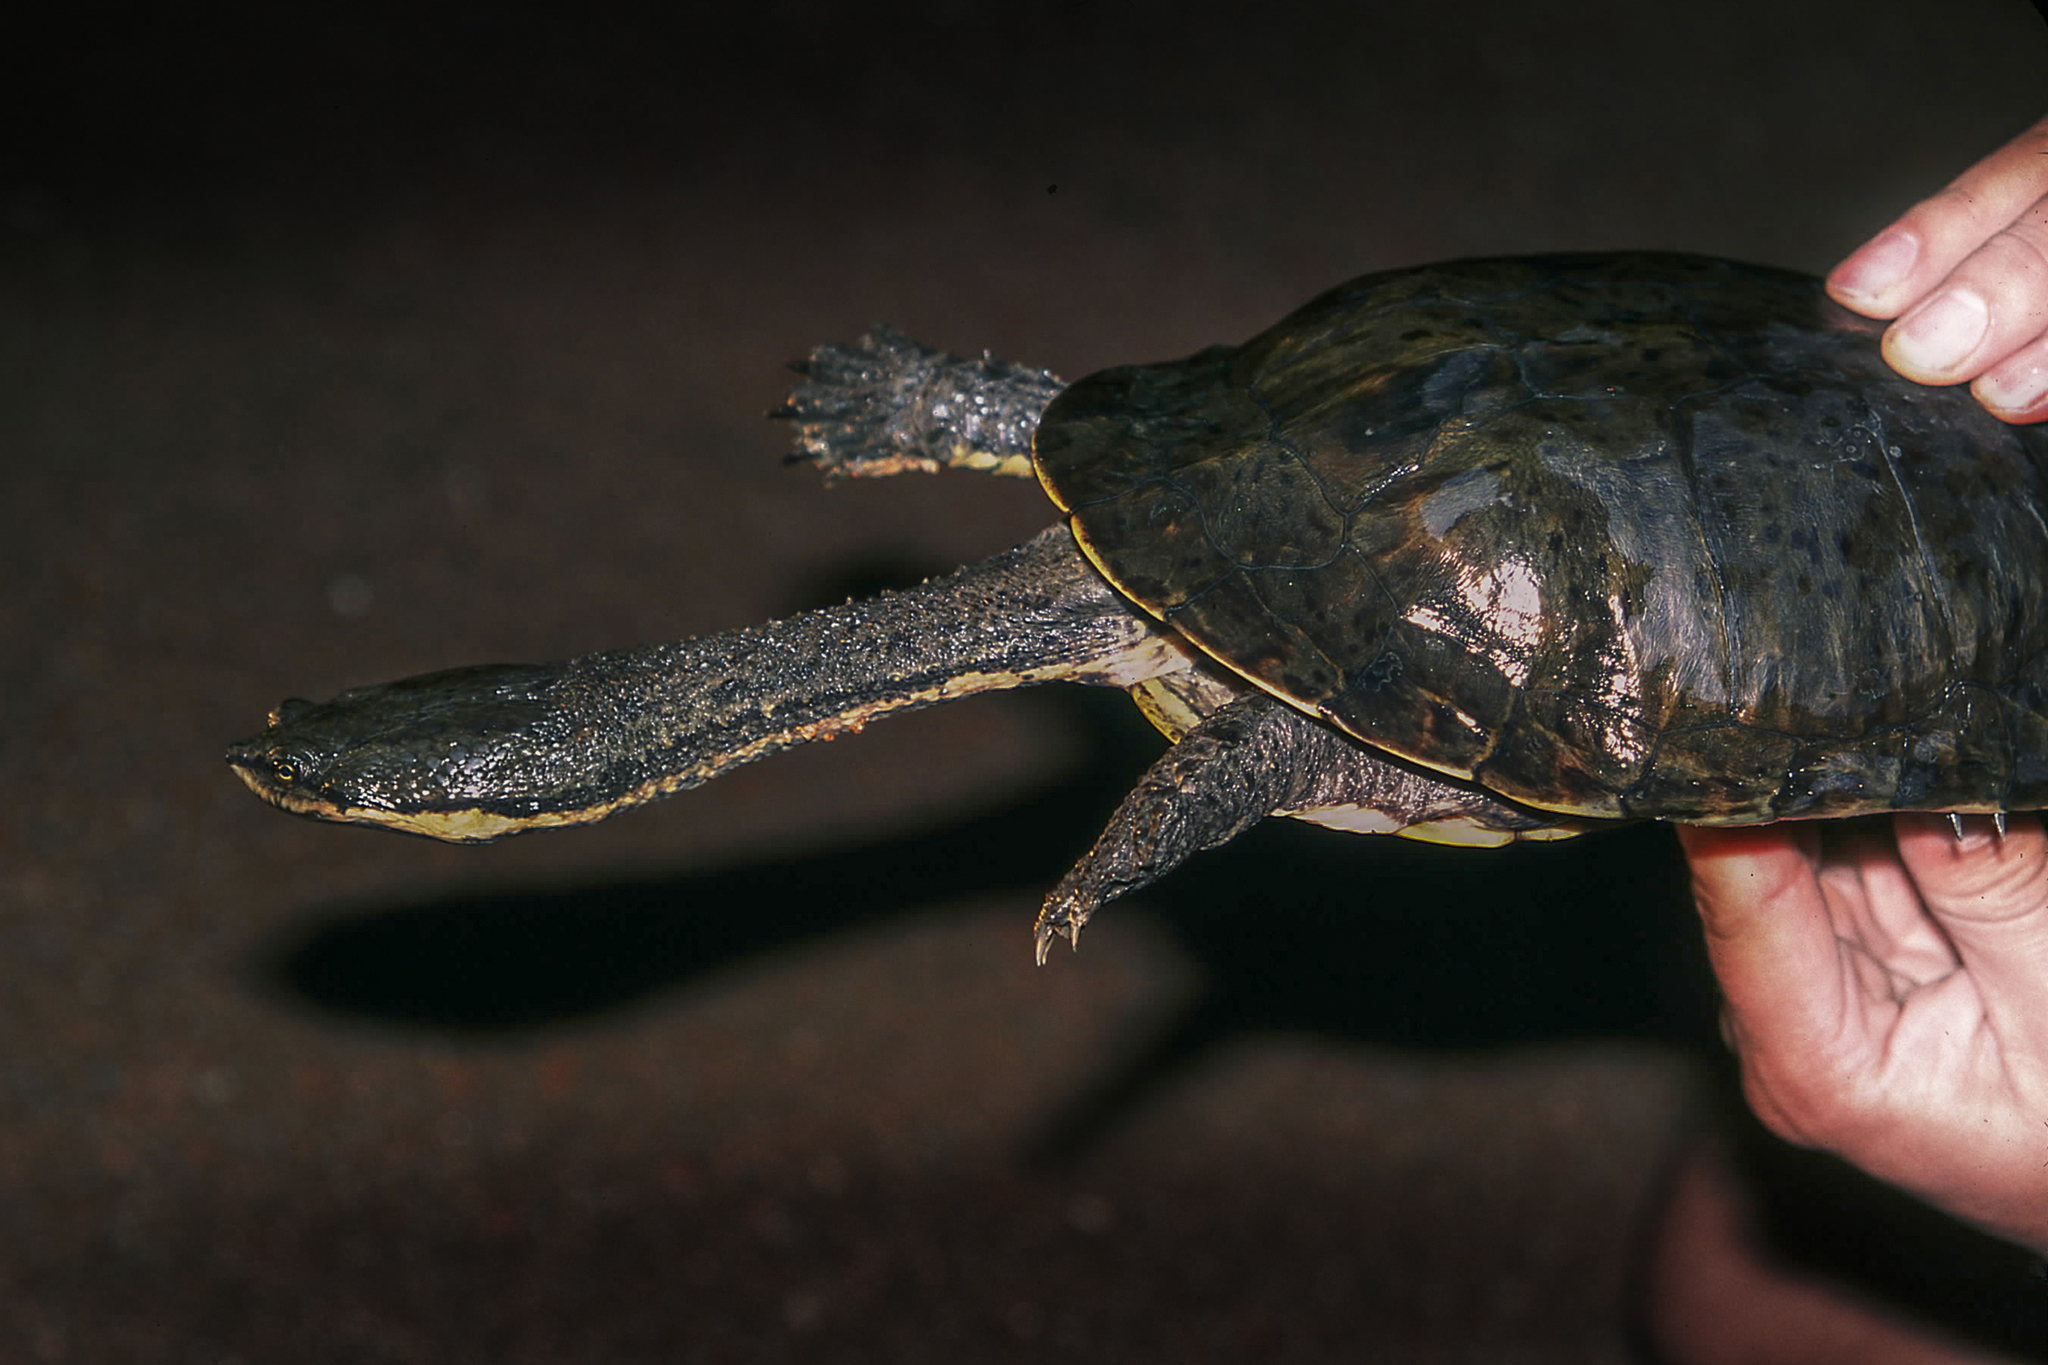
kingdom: Animalia
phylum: Chordata
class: Testudines
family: Chelidae
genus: Hydromedusa
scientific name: Hydromedusa tectifera
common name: Argentine snake-necked turtle
